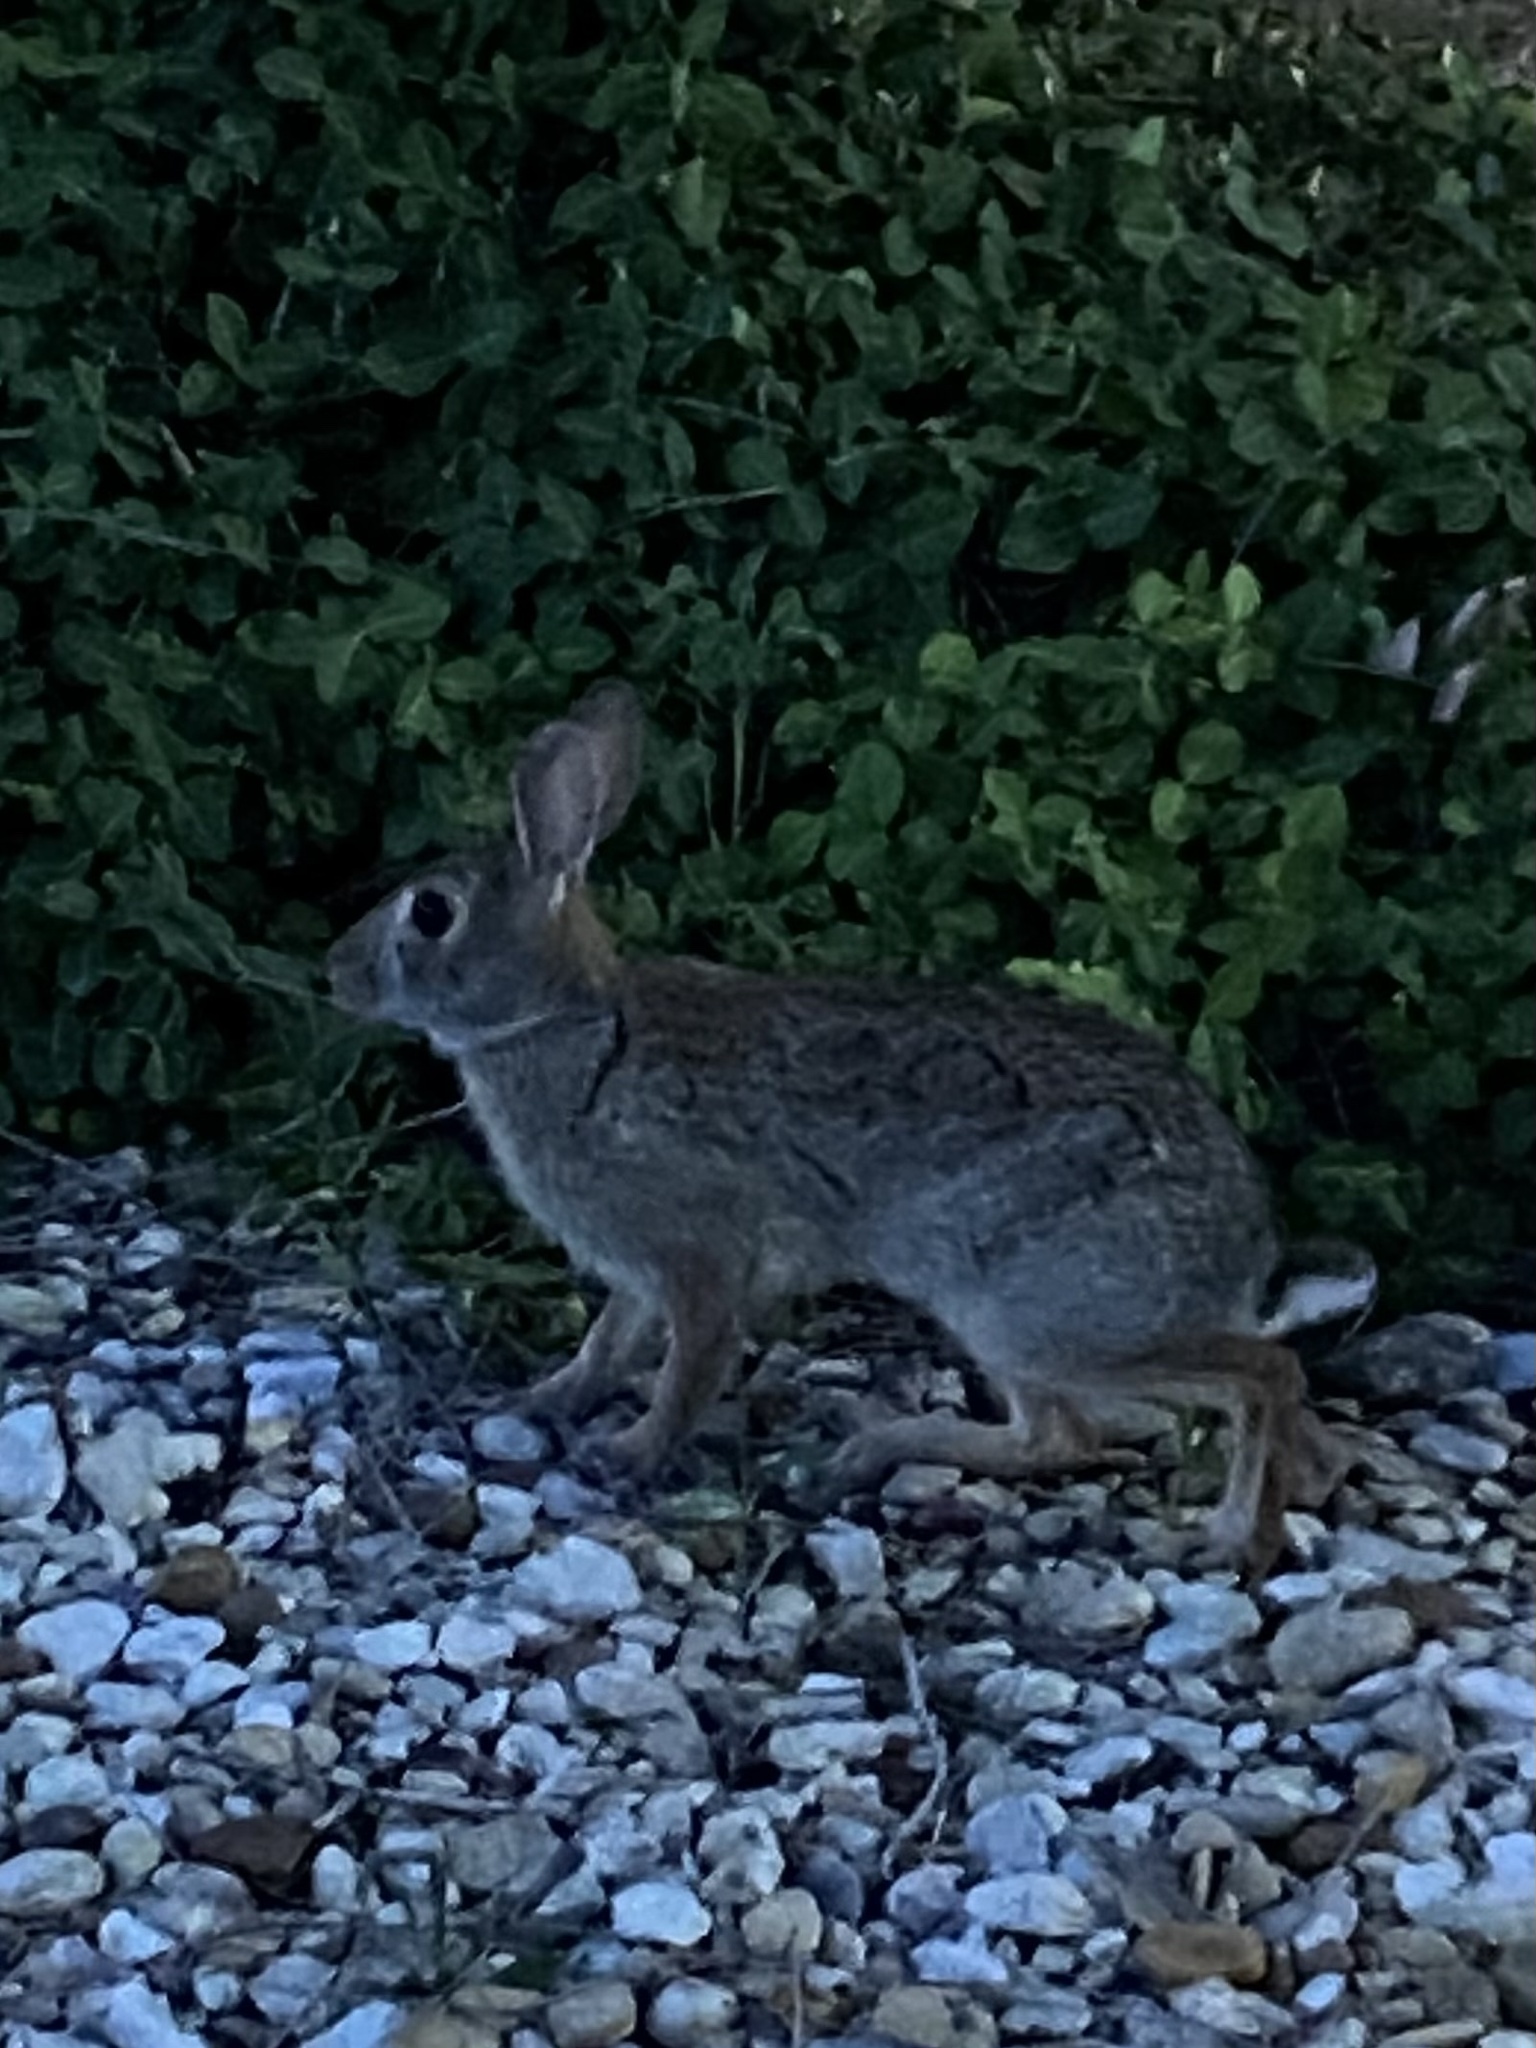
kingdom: Animalia
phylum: Chordata
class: Mammalia
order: Lagomorpha
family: Leporidae
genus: Sylvilagus
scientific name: Sylvilagus floridanus
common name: Eastern cottontail
